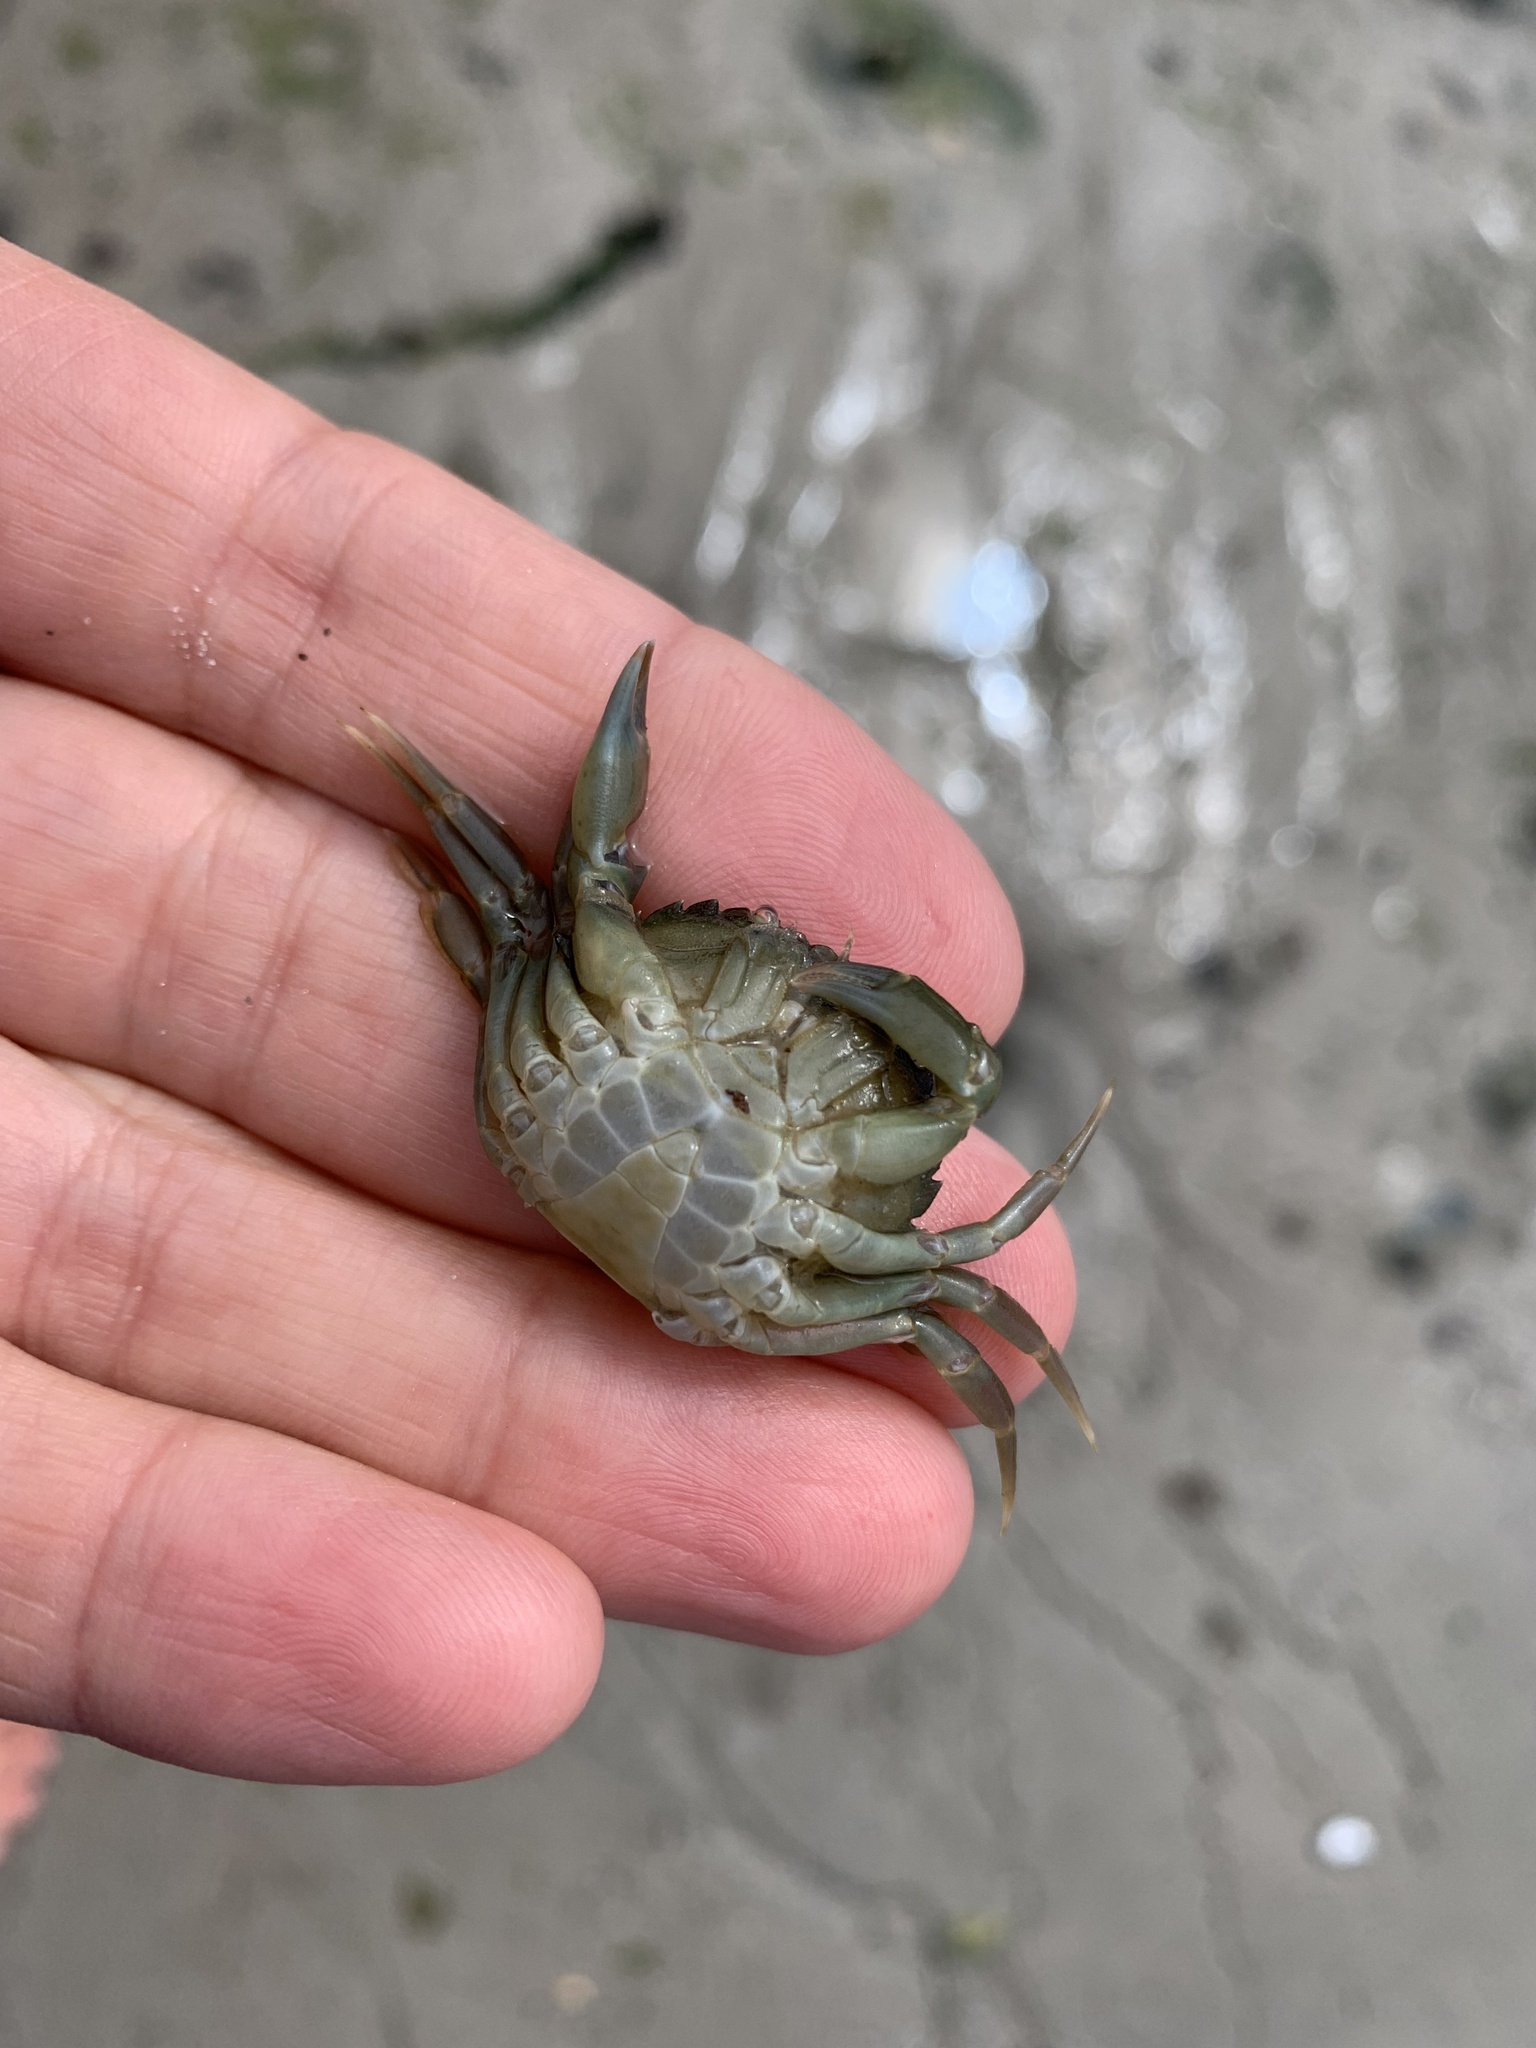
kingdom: Animalia
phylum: Arthropoda
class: Malacostraca
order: Decapoda
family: Carcinidae
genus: Carcinus
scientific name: Carcinus maenas
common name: European green crab
